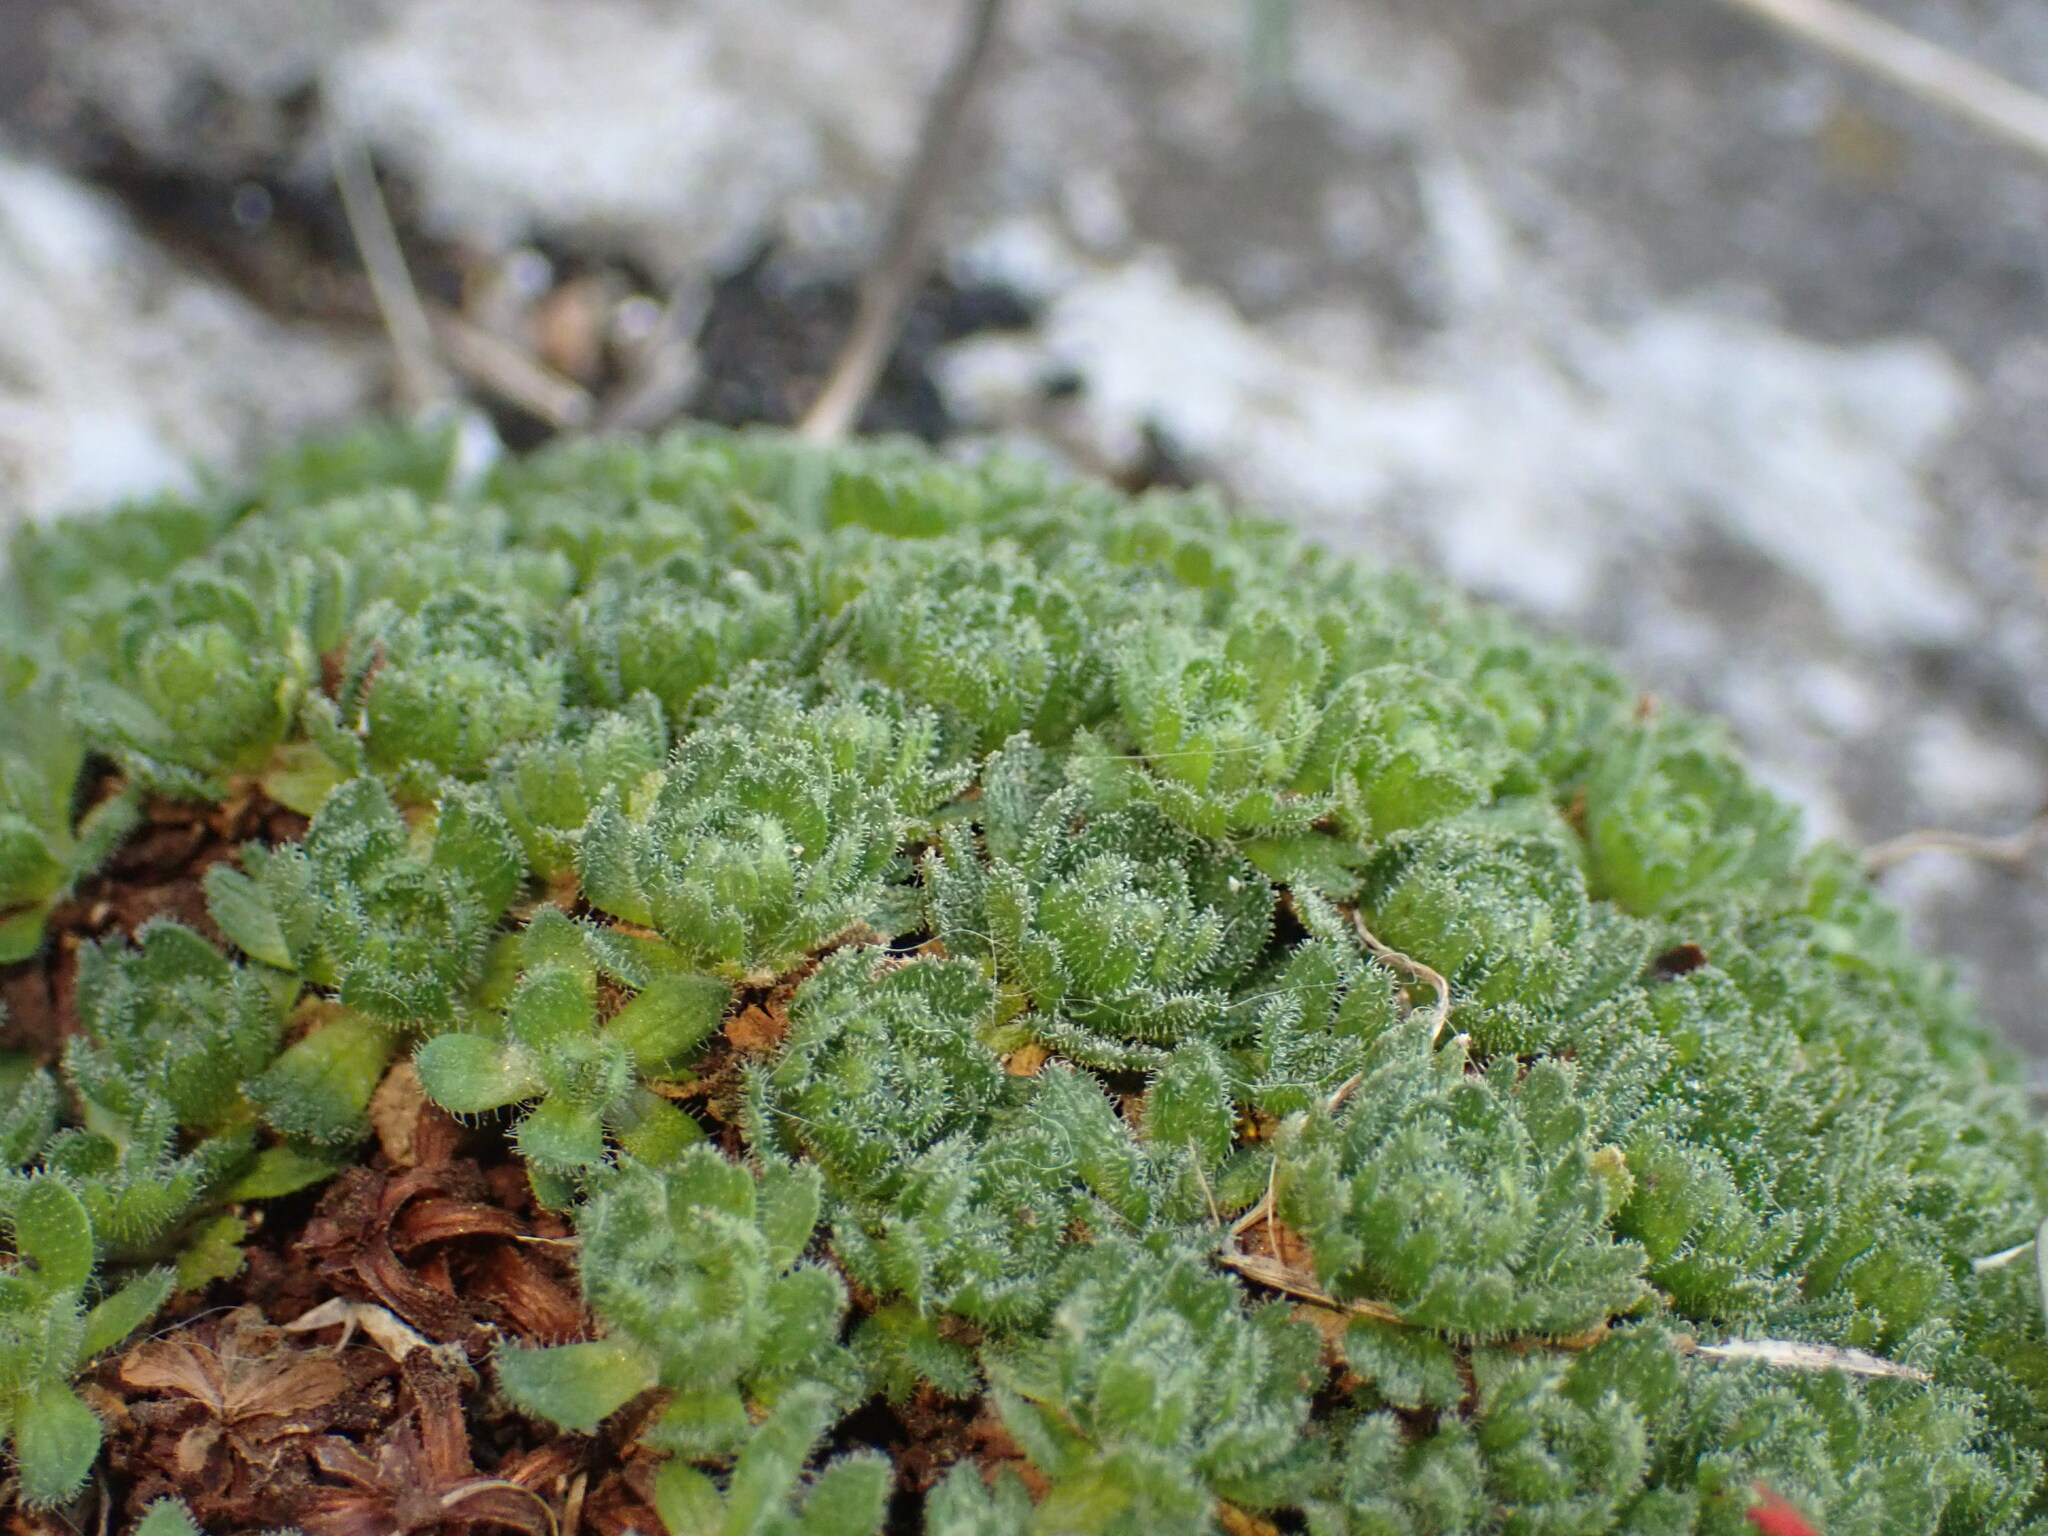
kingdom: Plantae
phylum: Tracheophyta
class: Magnoliopsida
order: Saxifragales
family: Saxifragaceae
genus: Saxifraga
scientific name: Saxifraga cebennensis
